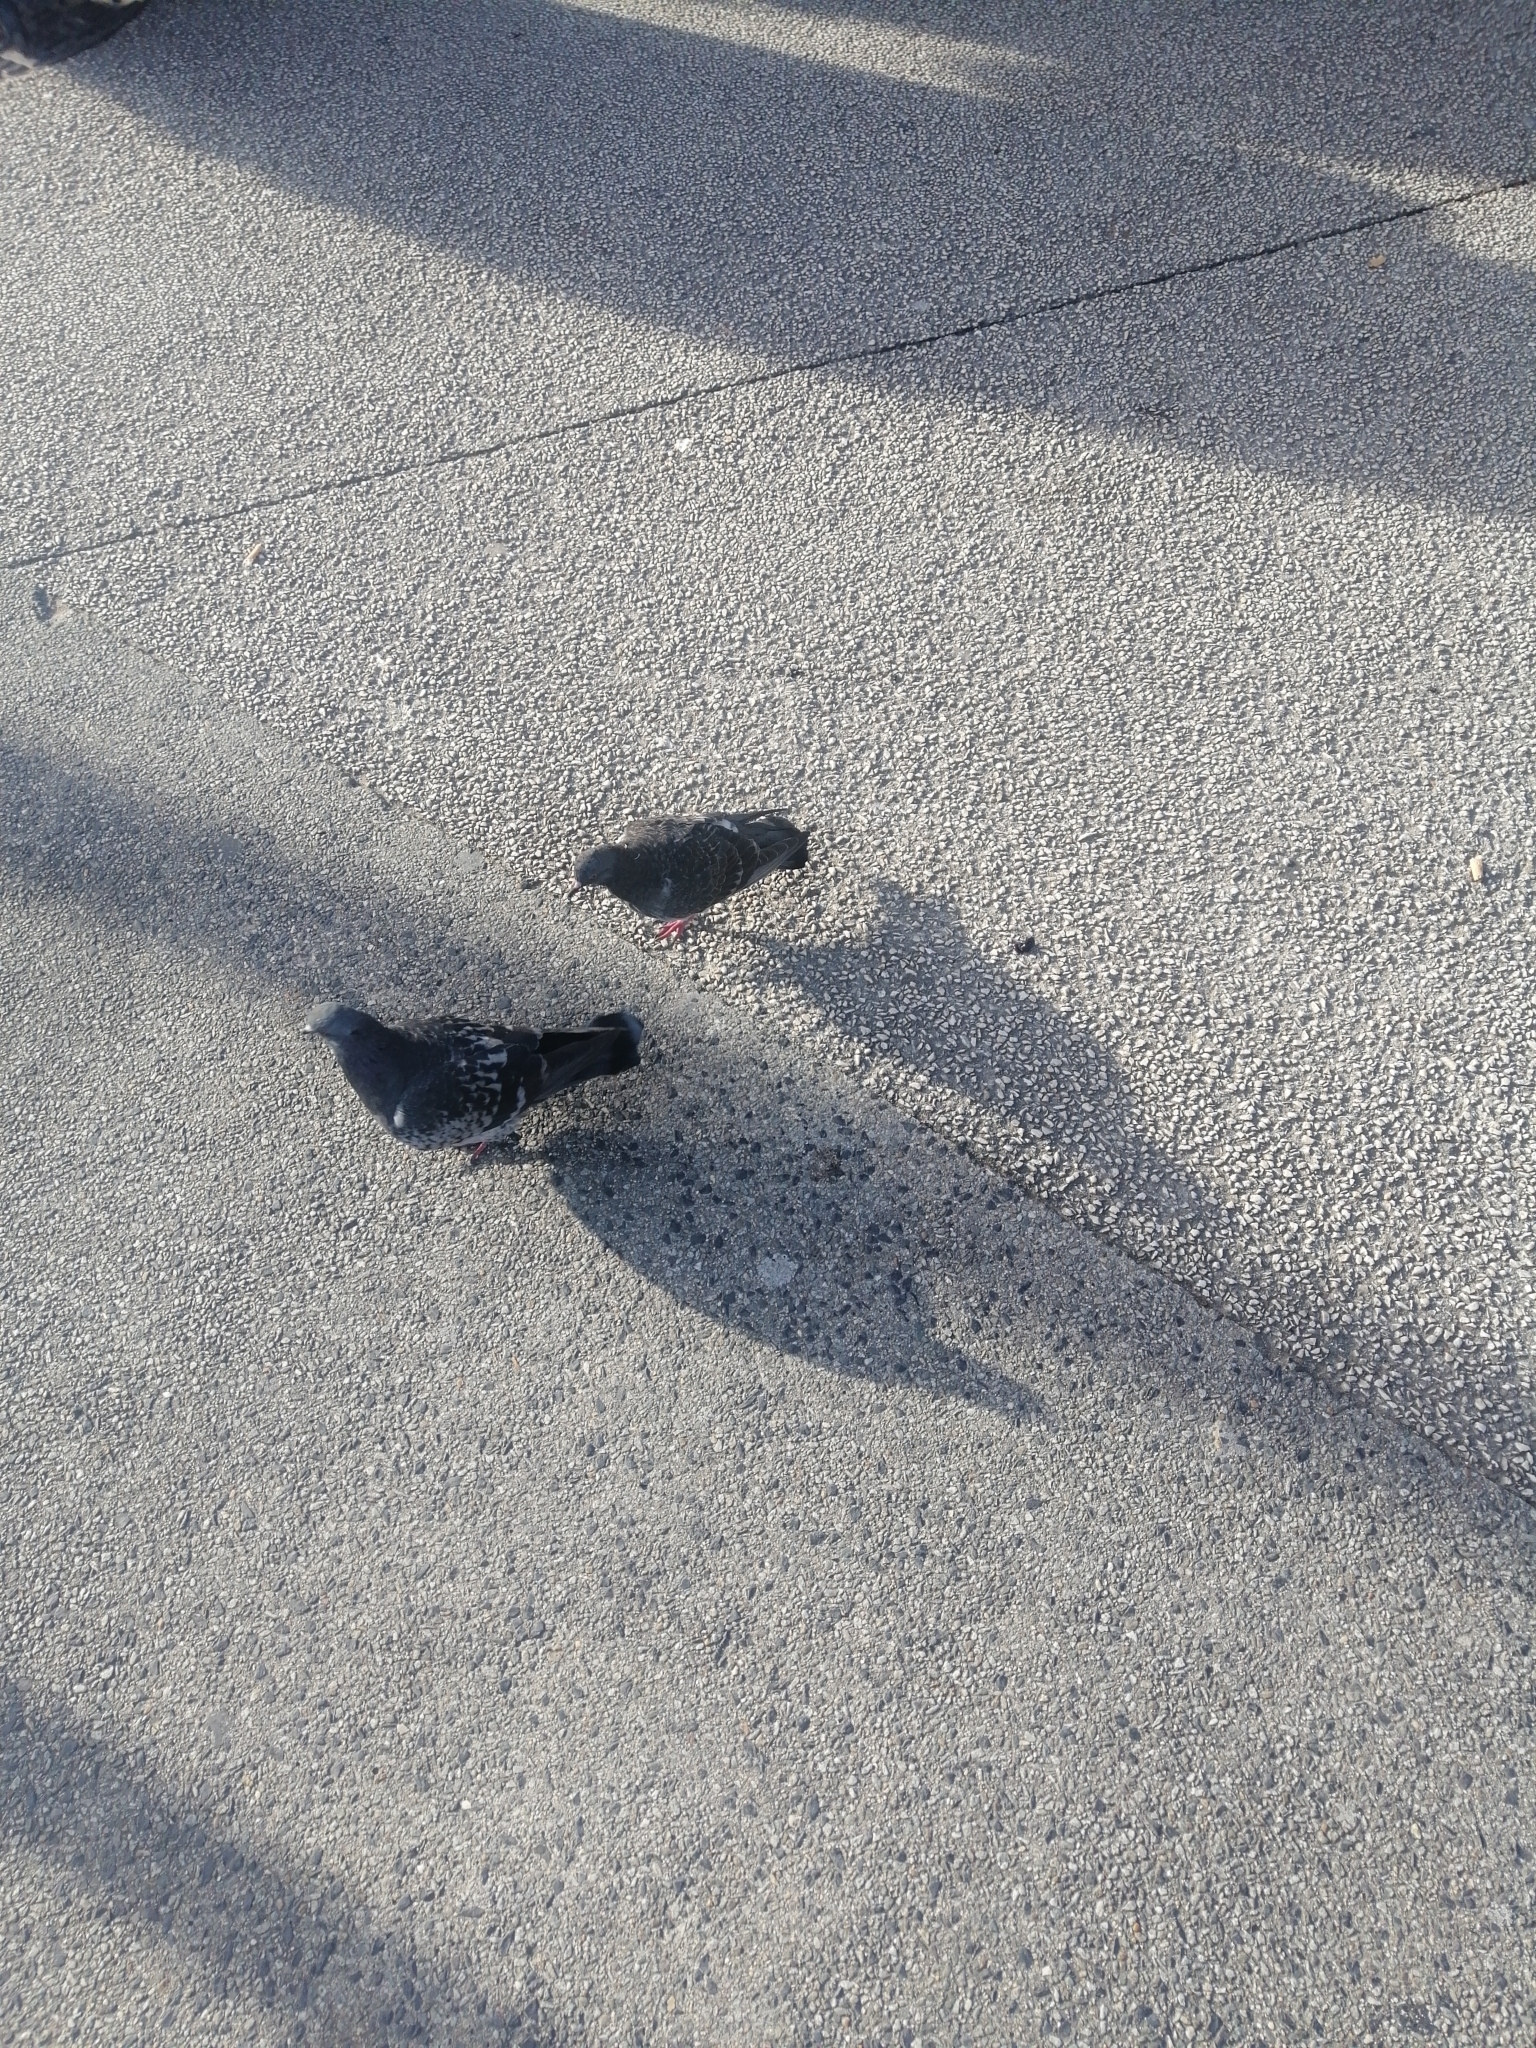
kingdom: Animalia
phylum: Chordata
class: Aves
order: Columbiformes
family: Columbidae
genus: Columba
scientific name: Columba livia
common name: Rock pigeon
